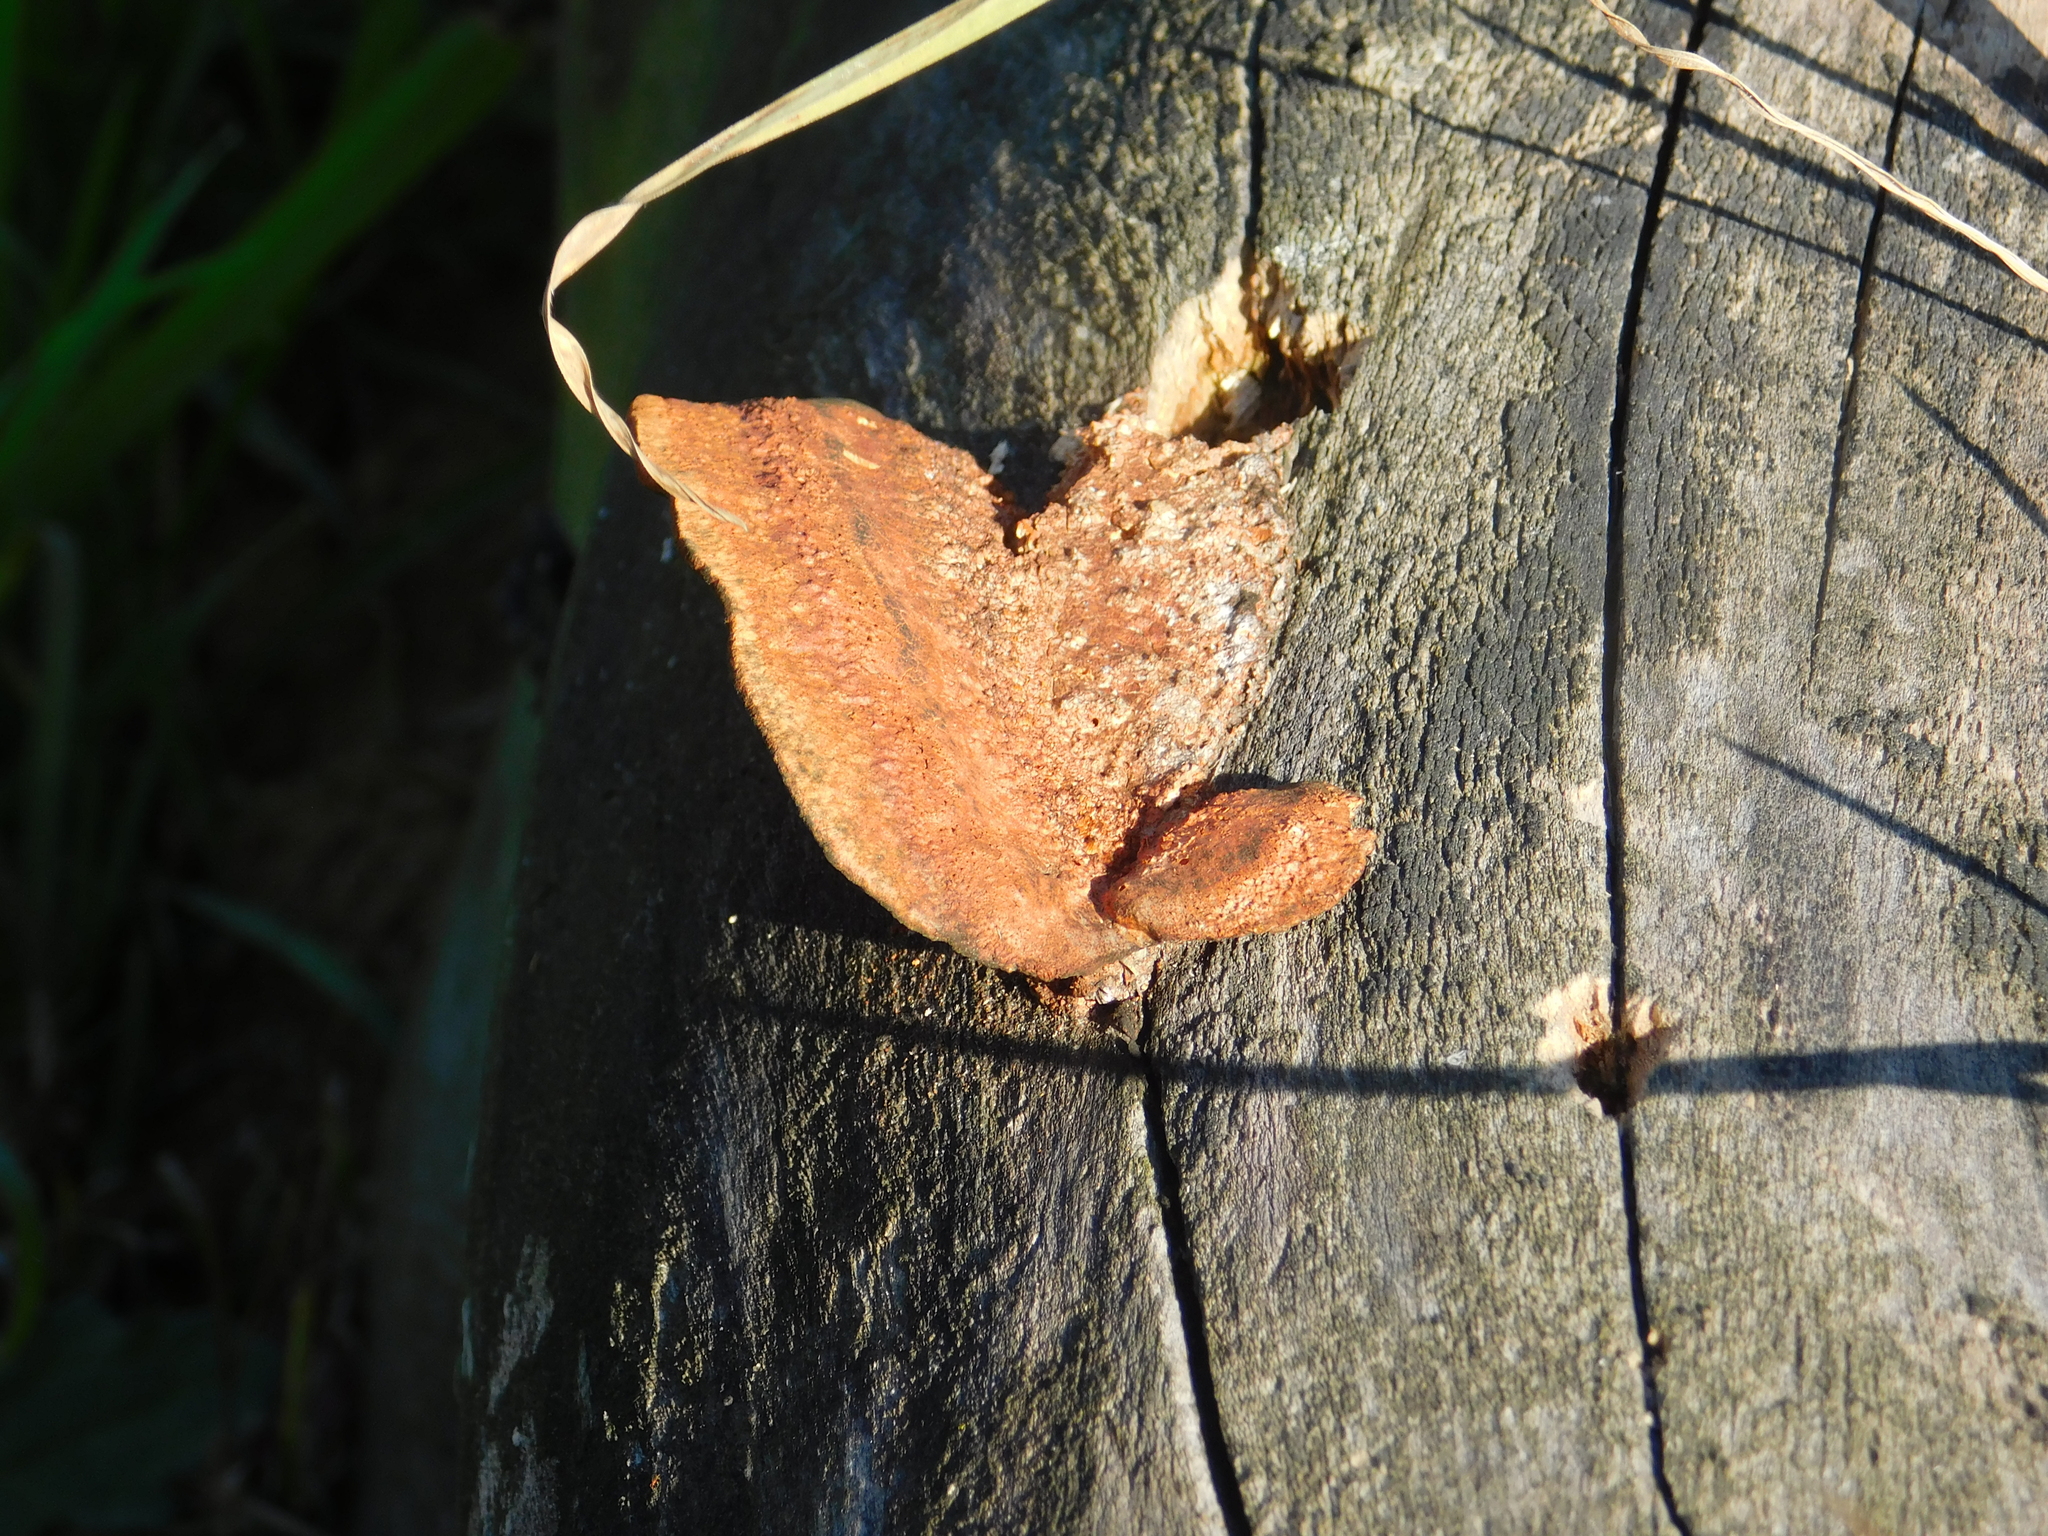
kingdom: Fungi
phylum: Basidiomycota
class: Agaricomycetes
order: Polyporales
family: Polyporaceae
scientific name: Polyporaceae
